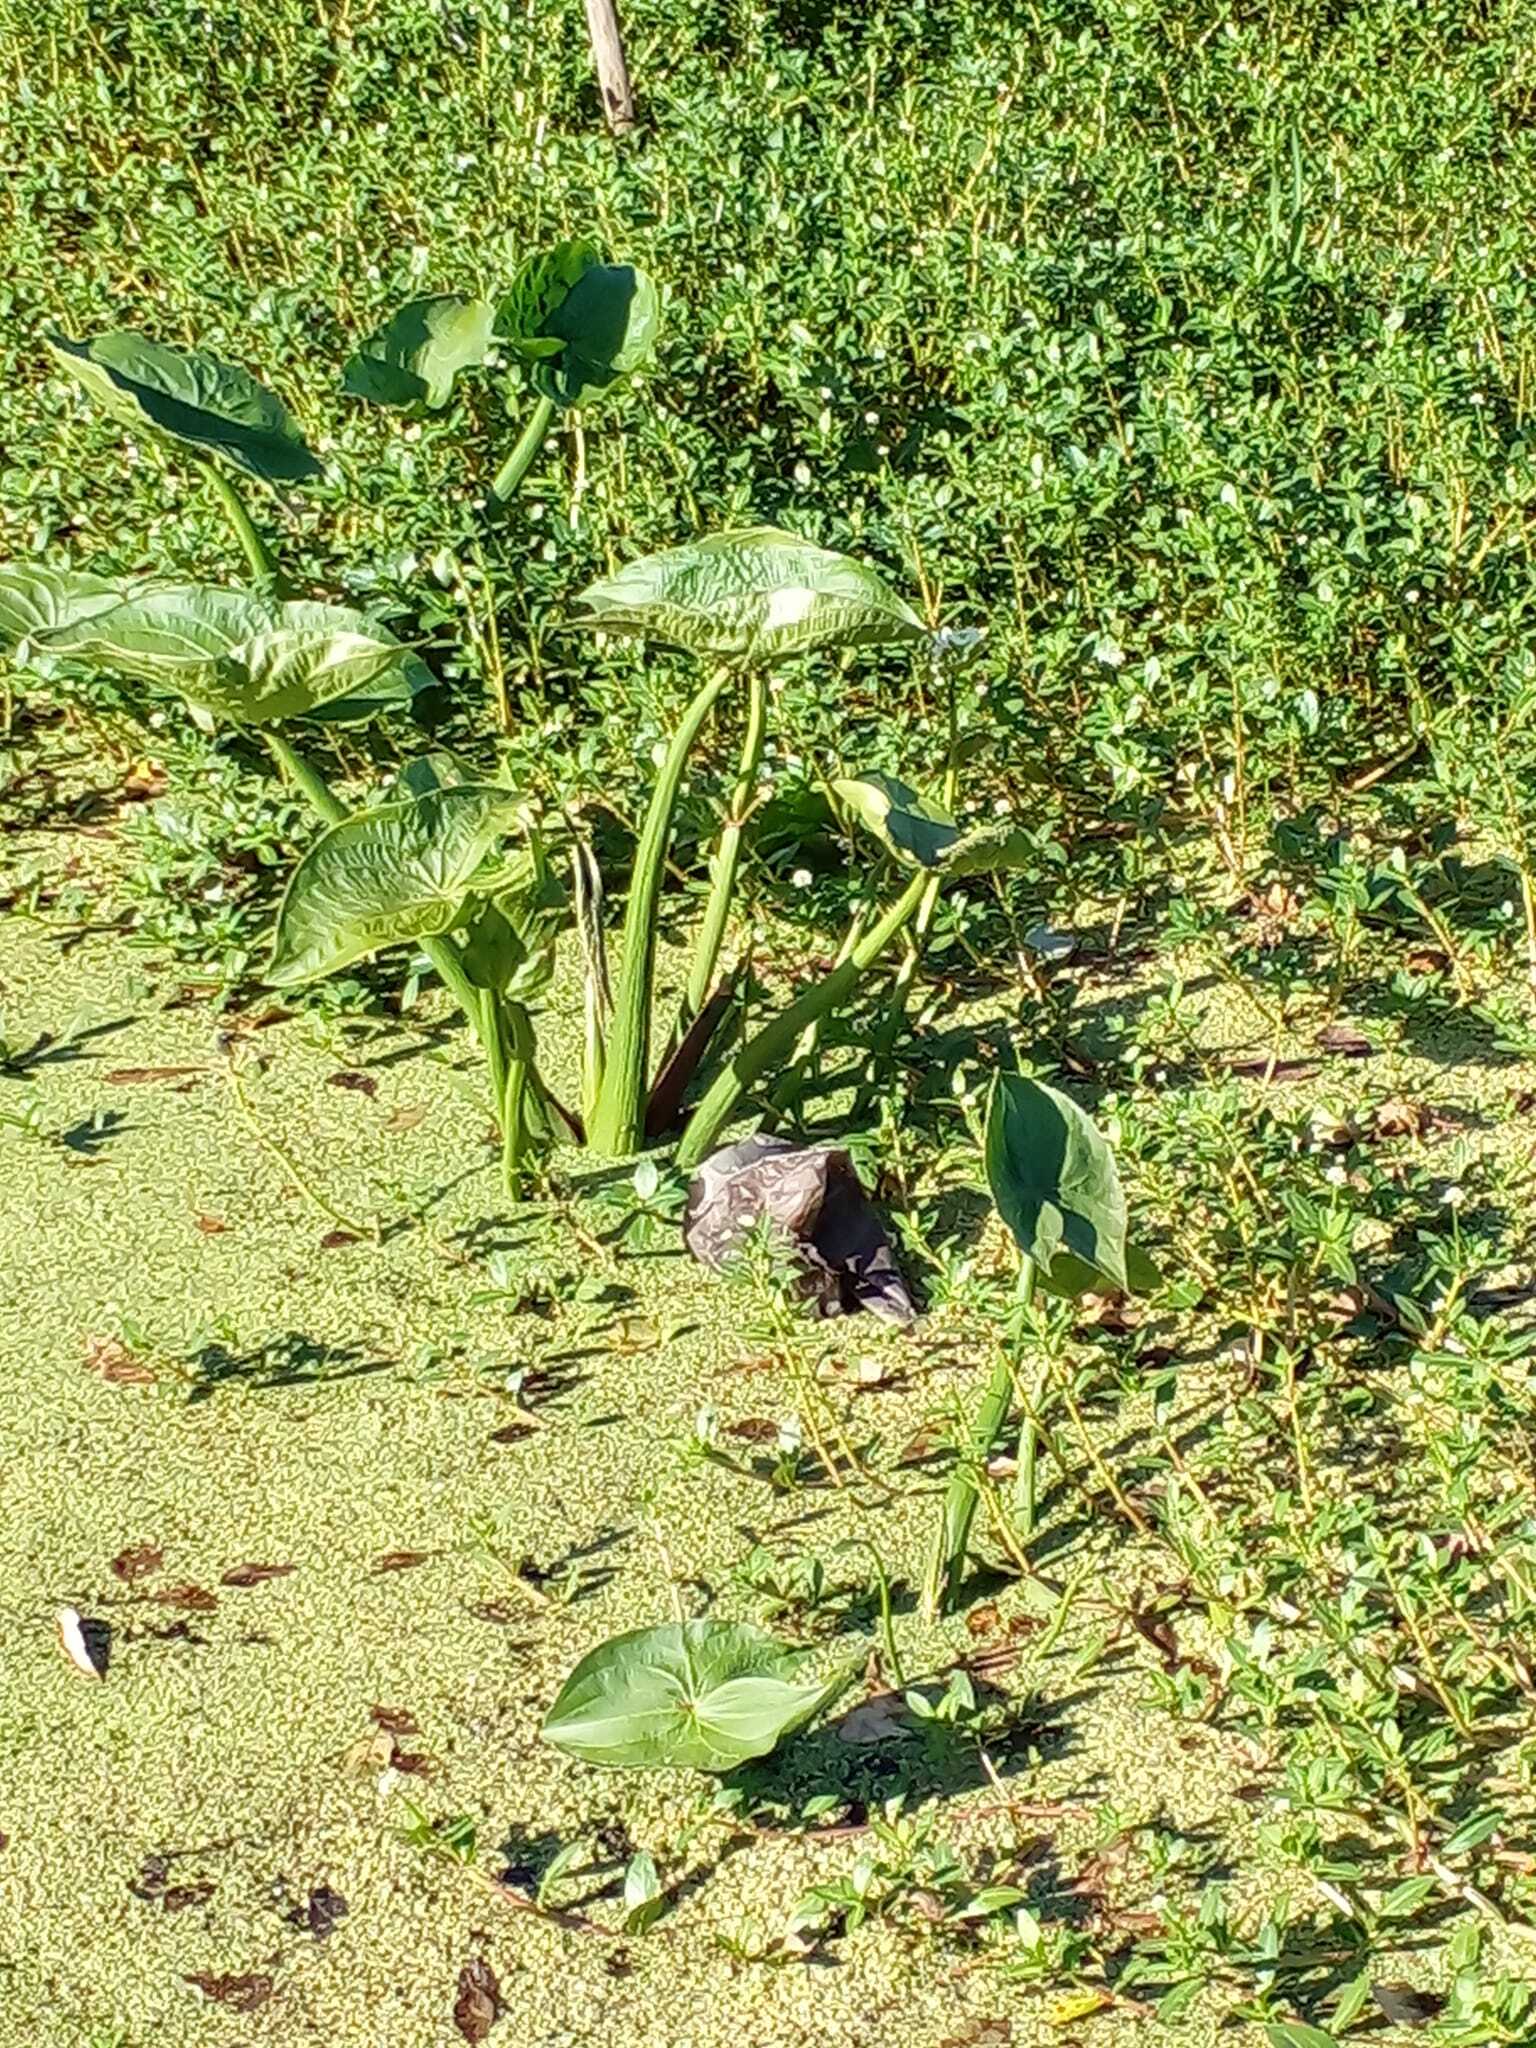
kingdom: Plantae
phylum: Tracheophyta
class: Liliopsida
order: Alismatales
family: Alismataceae
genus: Sagittaria
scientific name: Sagittaria montevidensis
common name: Giant arrowhead
